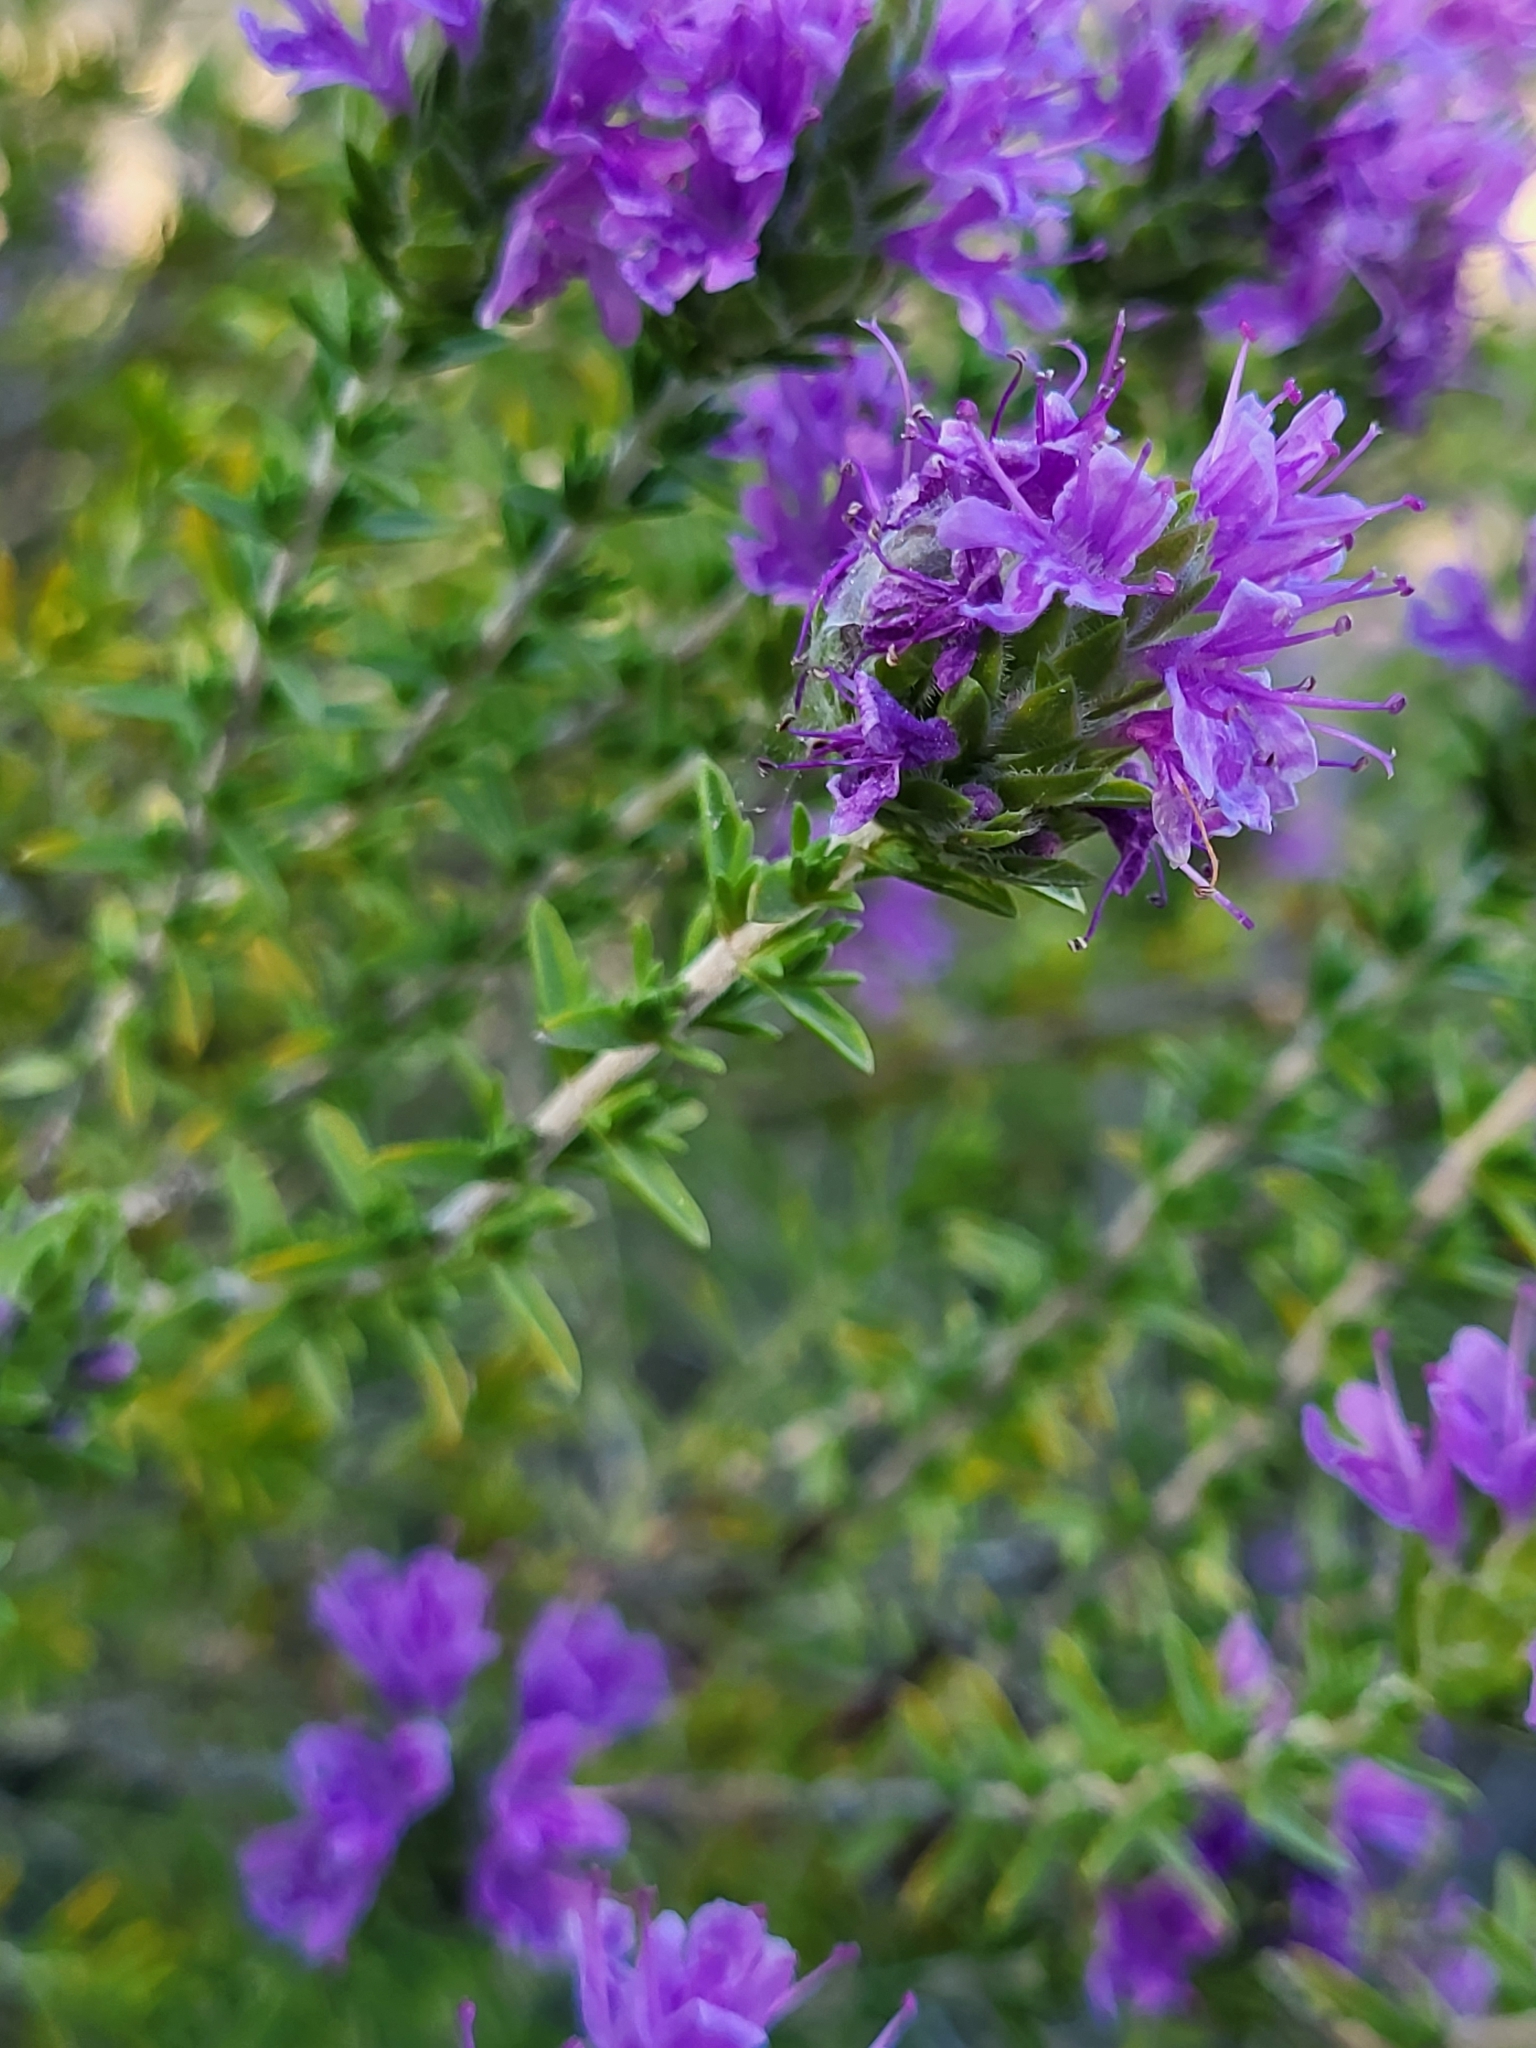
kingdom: Plantae
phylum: Tracheophyta
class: Magnoliopsida
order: Lamiales
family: Lamiaceae
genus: Thymbra
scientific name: Thymbra capitata
